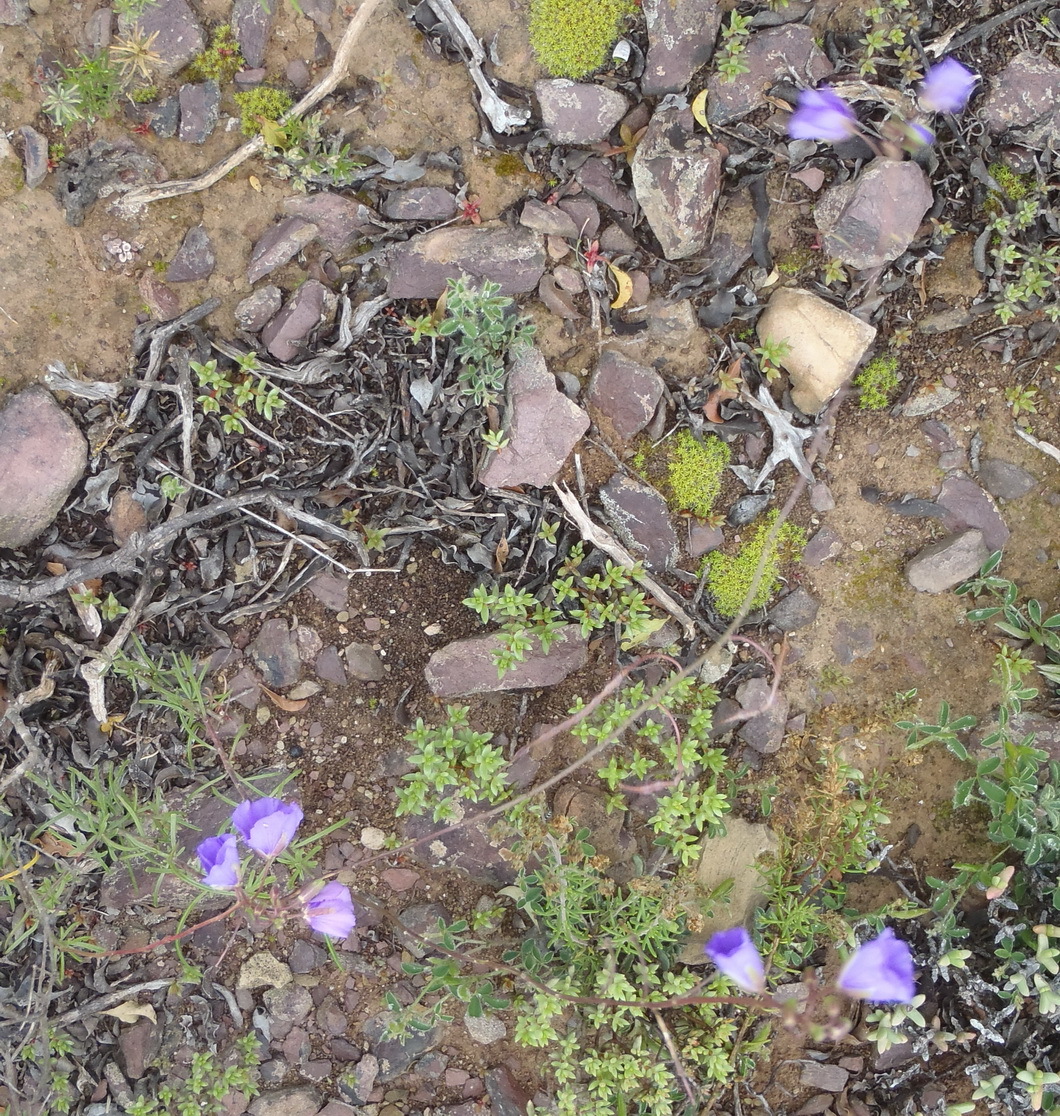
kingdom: Plantae
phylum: Tracheophyta
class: Magnoliopsida
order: Brassicales
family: Brassicaceae
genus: Heliophila
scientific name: Heliophila suavissima
